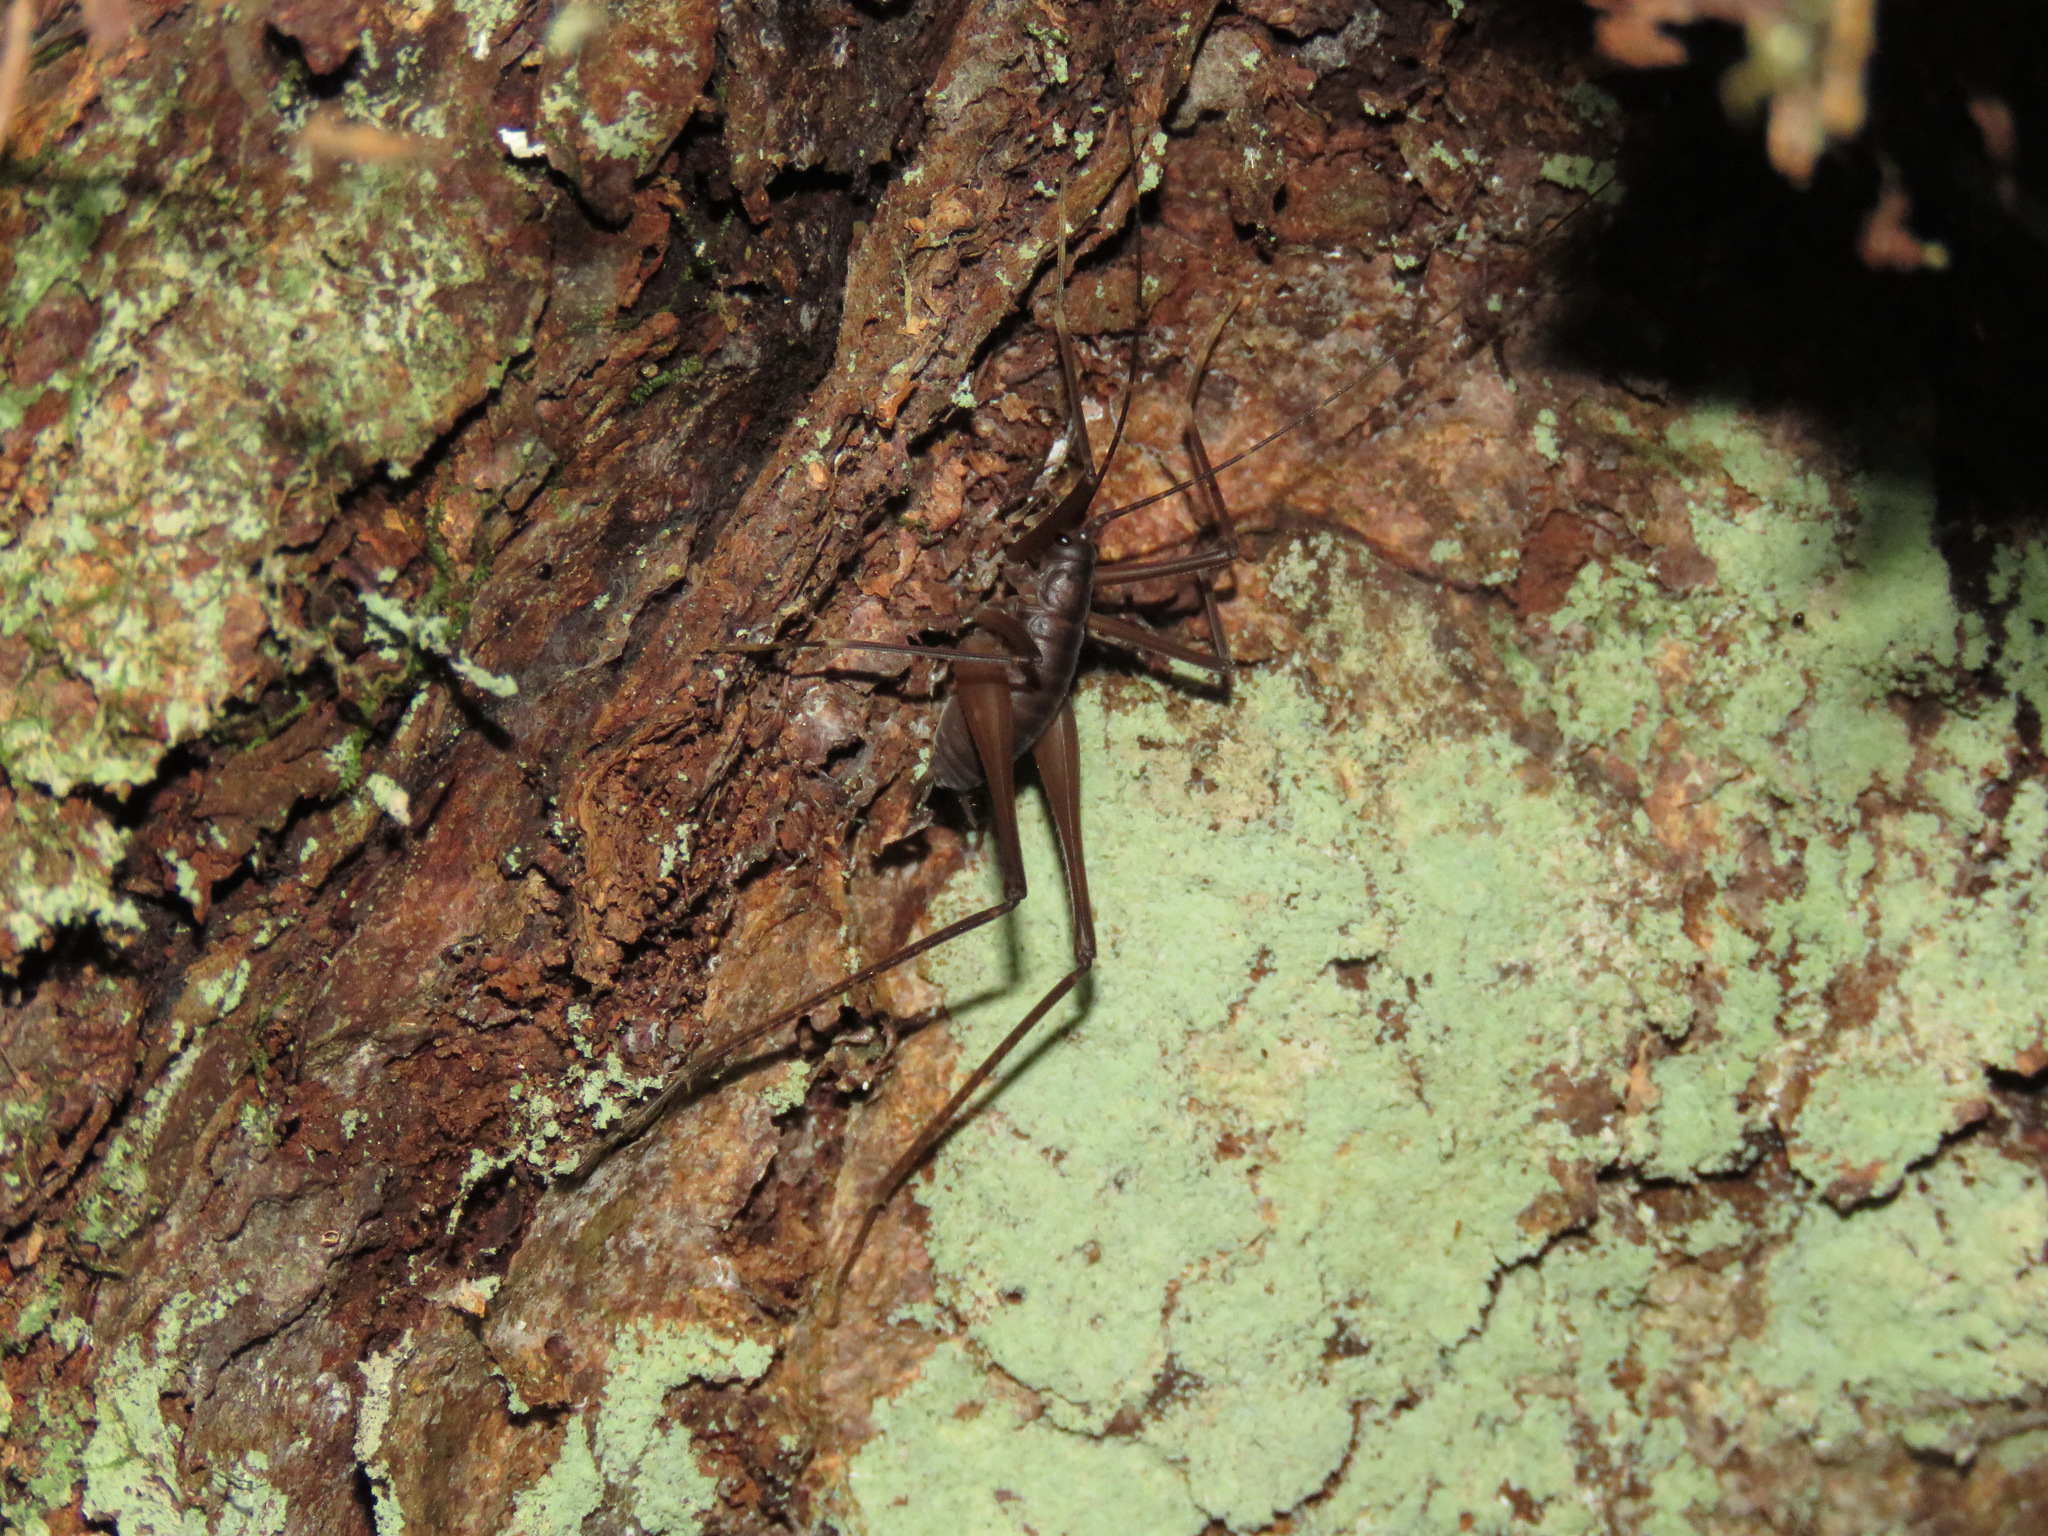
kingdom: Animalia
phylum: Arthropoda
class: Insecta
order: Orthoptera
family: Rhaphidophoridae
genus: Tropidischia
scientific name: Tropidischia xanthostoma
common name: Square-legged camel cricket
